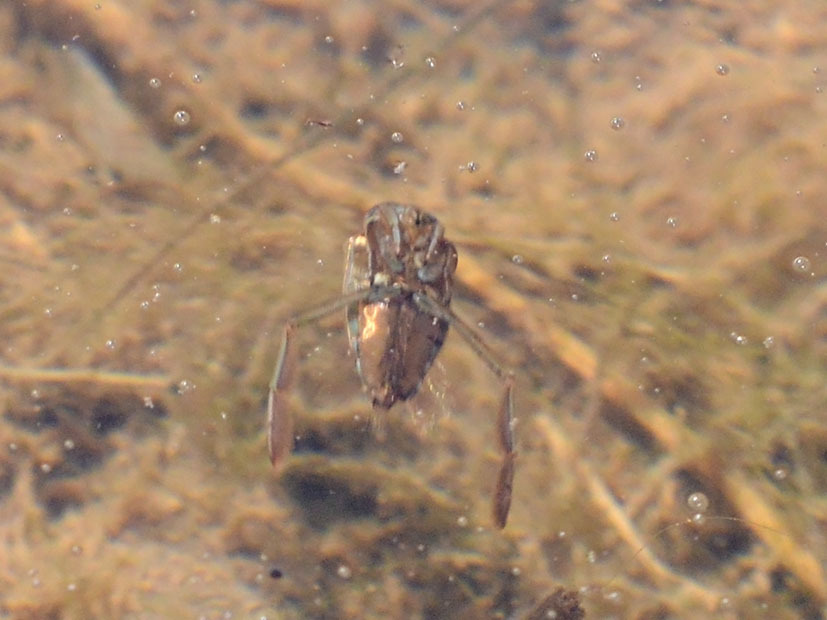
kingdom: Animalia
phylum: Arthropoda
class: Insecta
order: Hemiptera
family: Notonectidae
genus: Notonecta
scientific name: Notonecta
